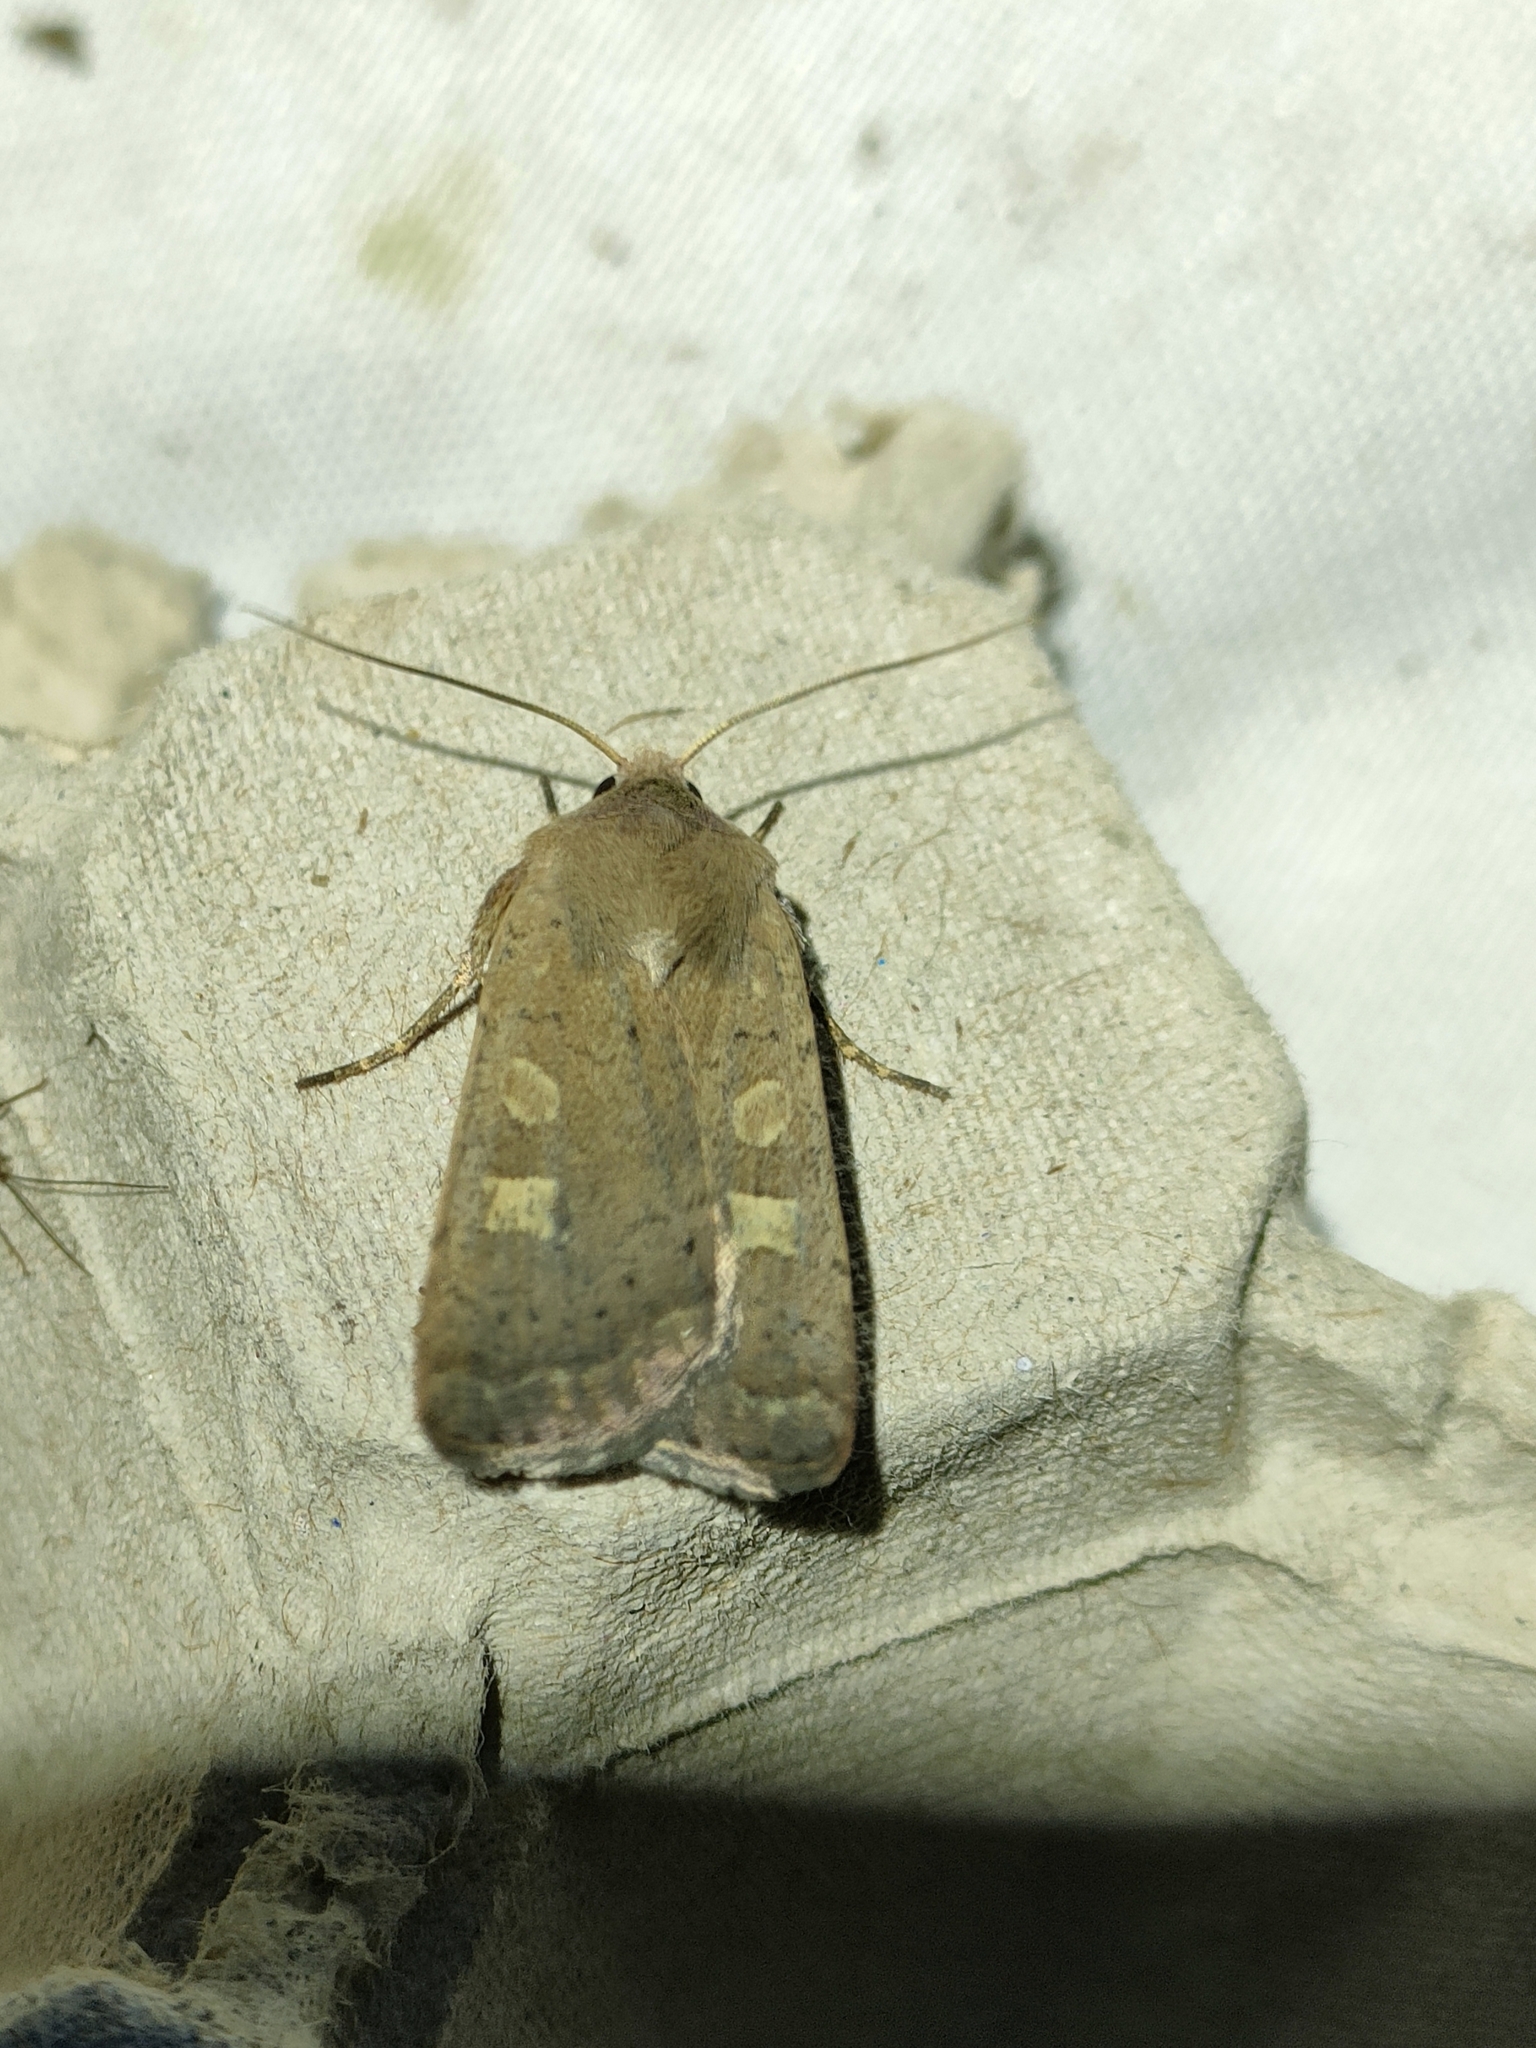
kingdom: Animalia
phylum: Arthropoda
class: Insecta
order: Lepidoptera
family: Noctuidae
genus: Xestia
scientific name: Xestia xanthographa
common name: Square-spot rustic
